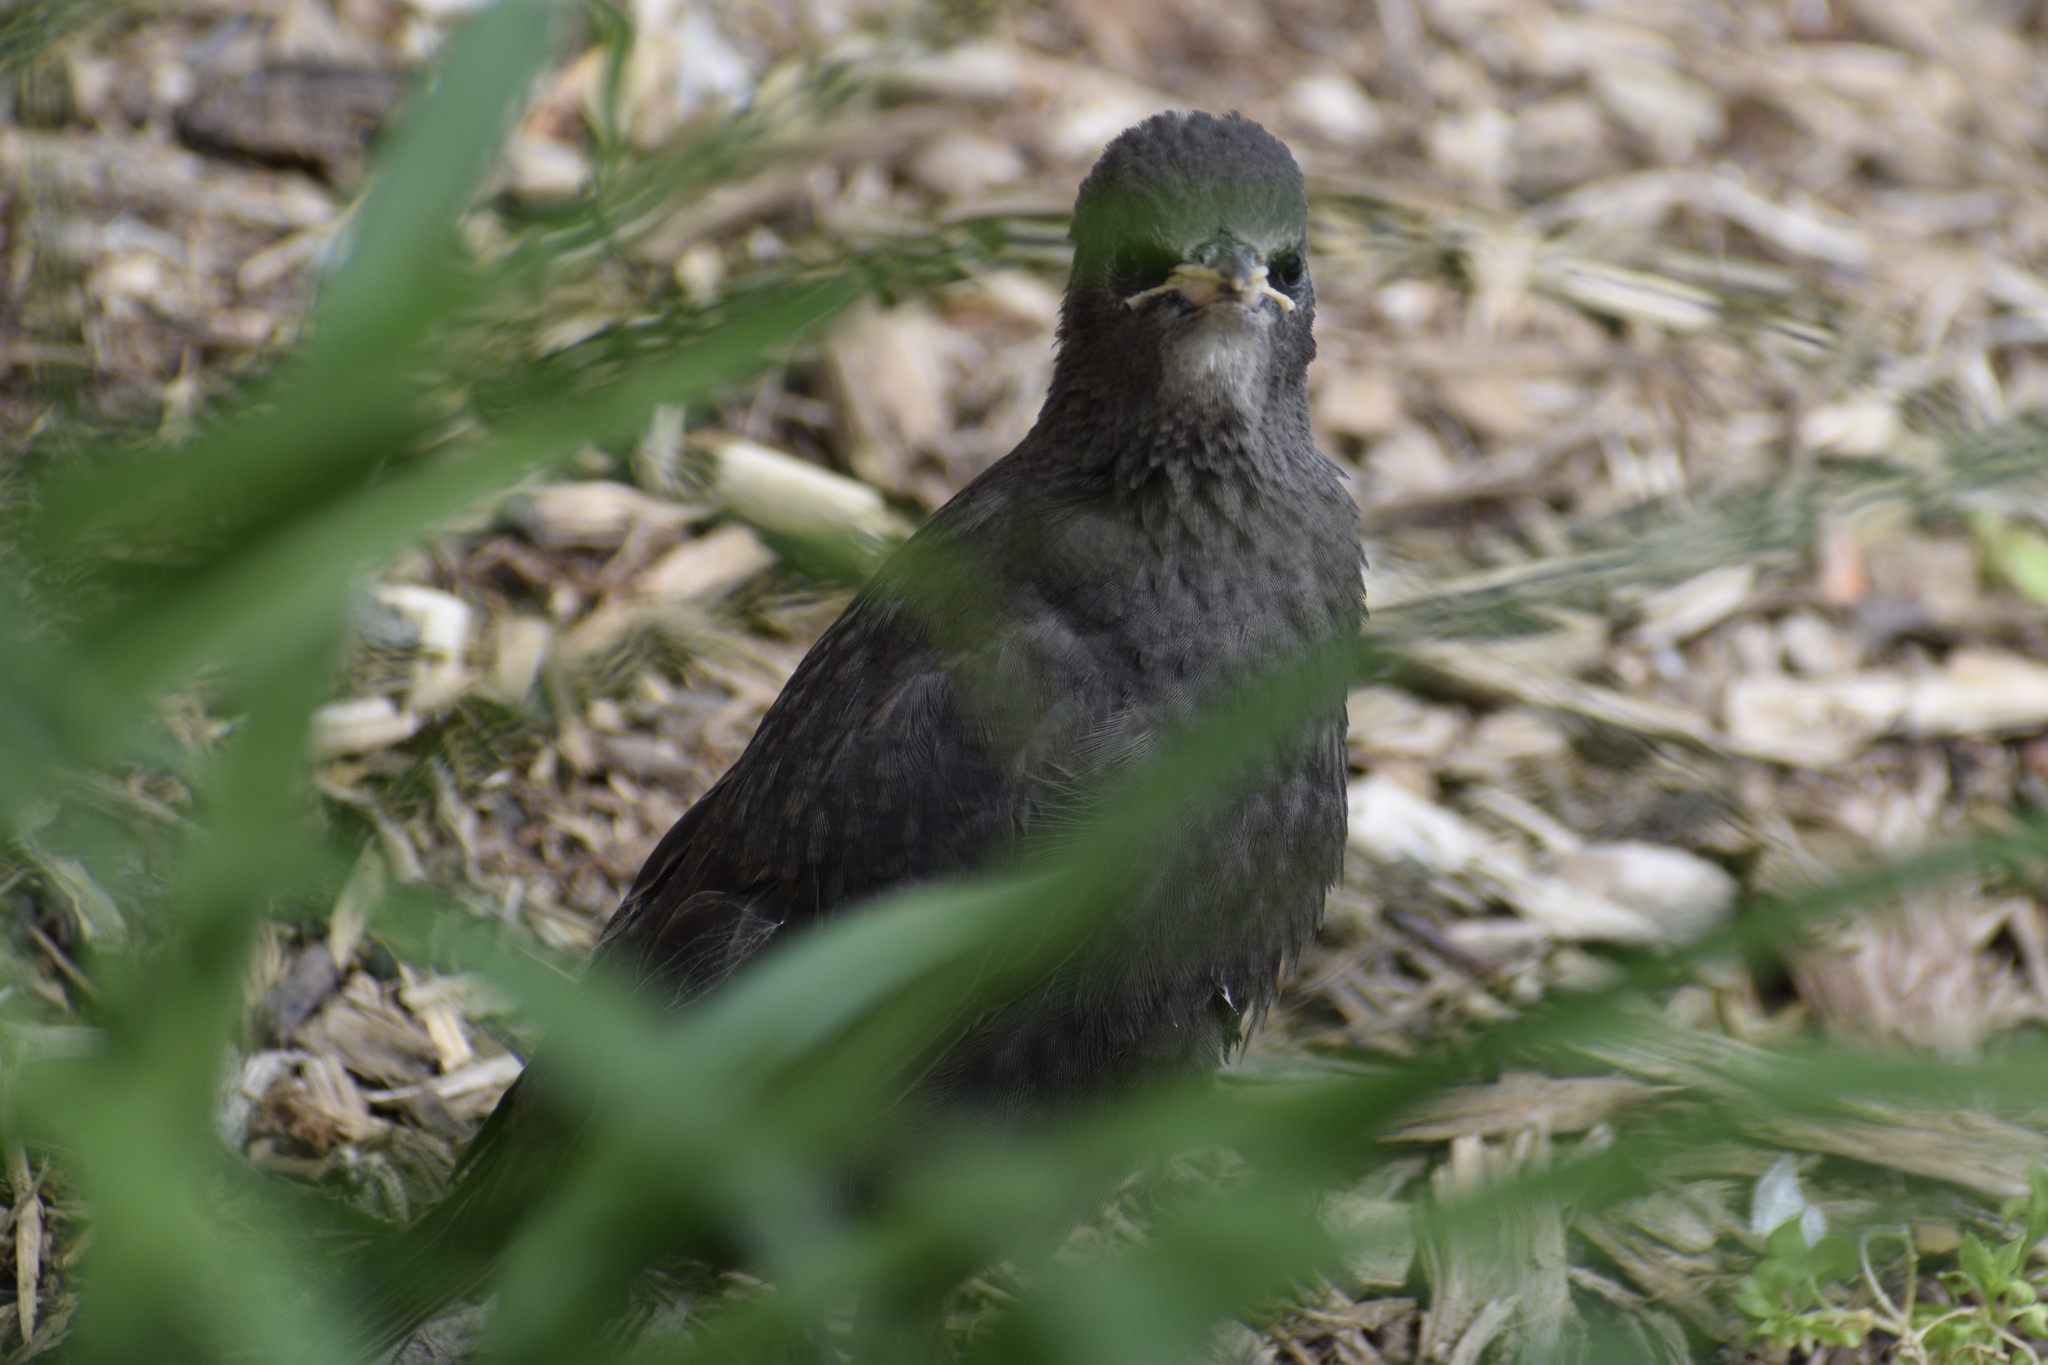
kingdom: Animalia
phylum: Chordata
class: Aves
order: Passeriformes
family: Sturnidae
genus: Sturnus
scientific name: Sturnus vulgaris
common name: Common starling
